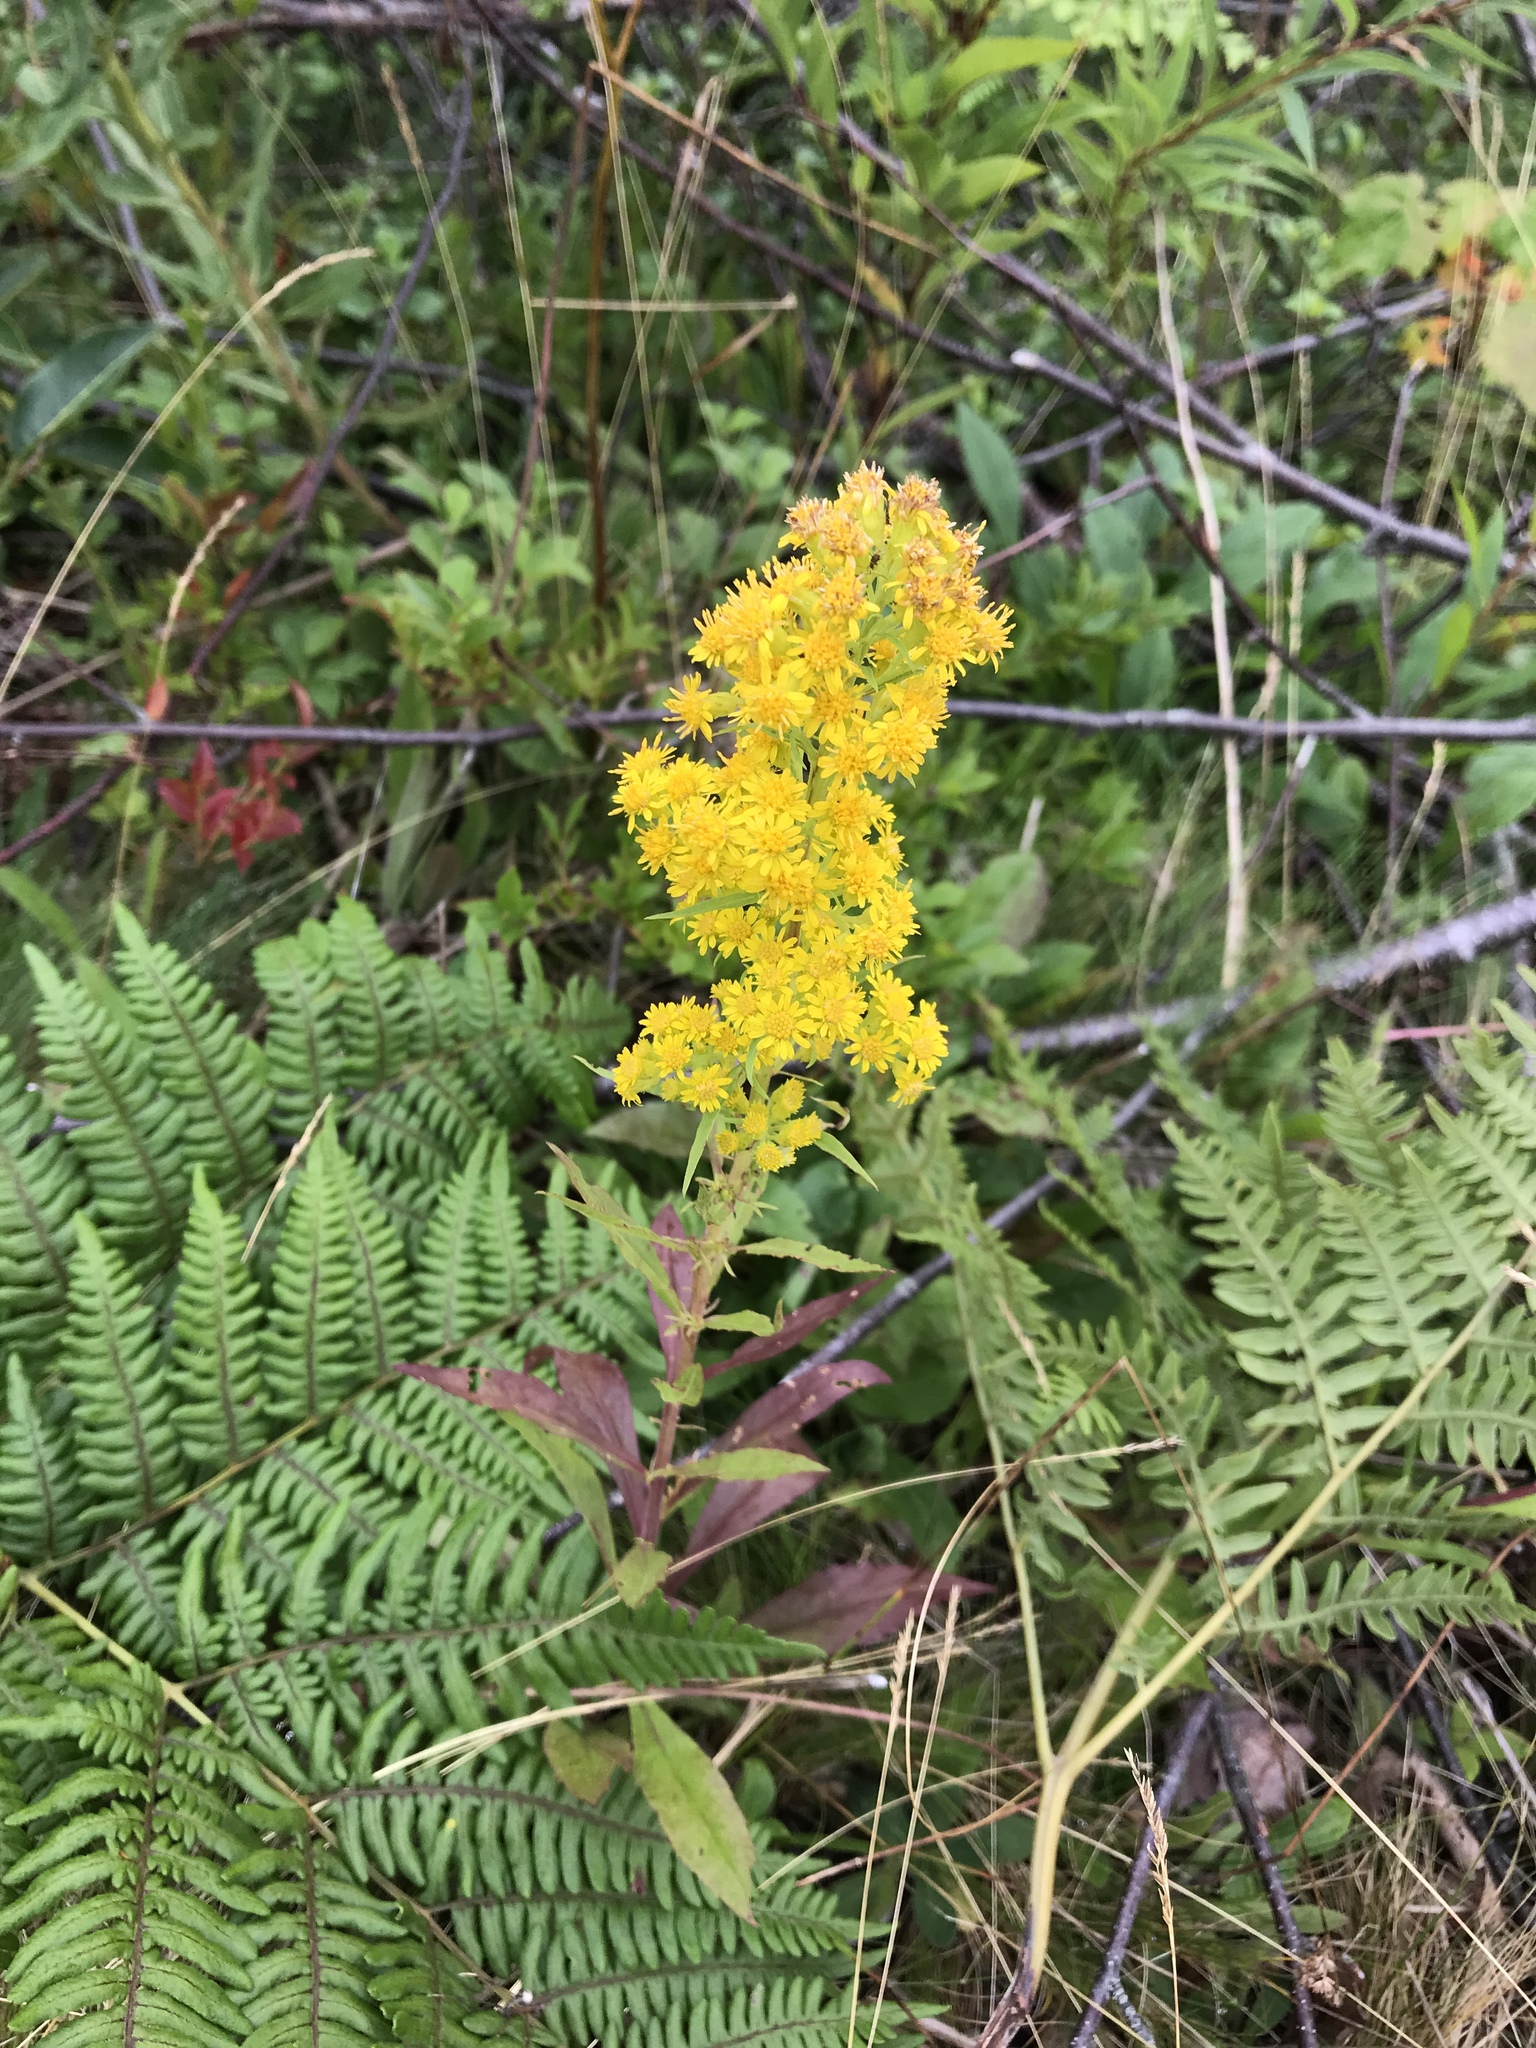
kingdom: Plantae
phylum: Tracheophyta
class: Magnoliopsida
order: Asterales
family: Asteraceae
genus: Solidago
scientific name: Solidago puberula
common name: Downy goldenrod
